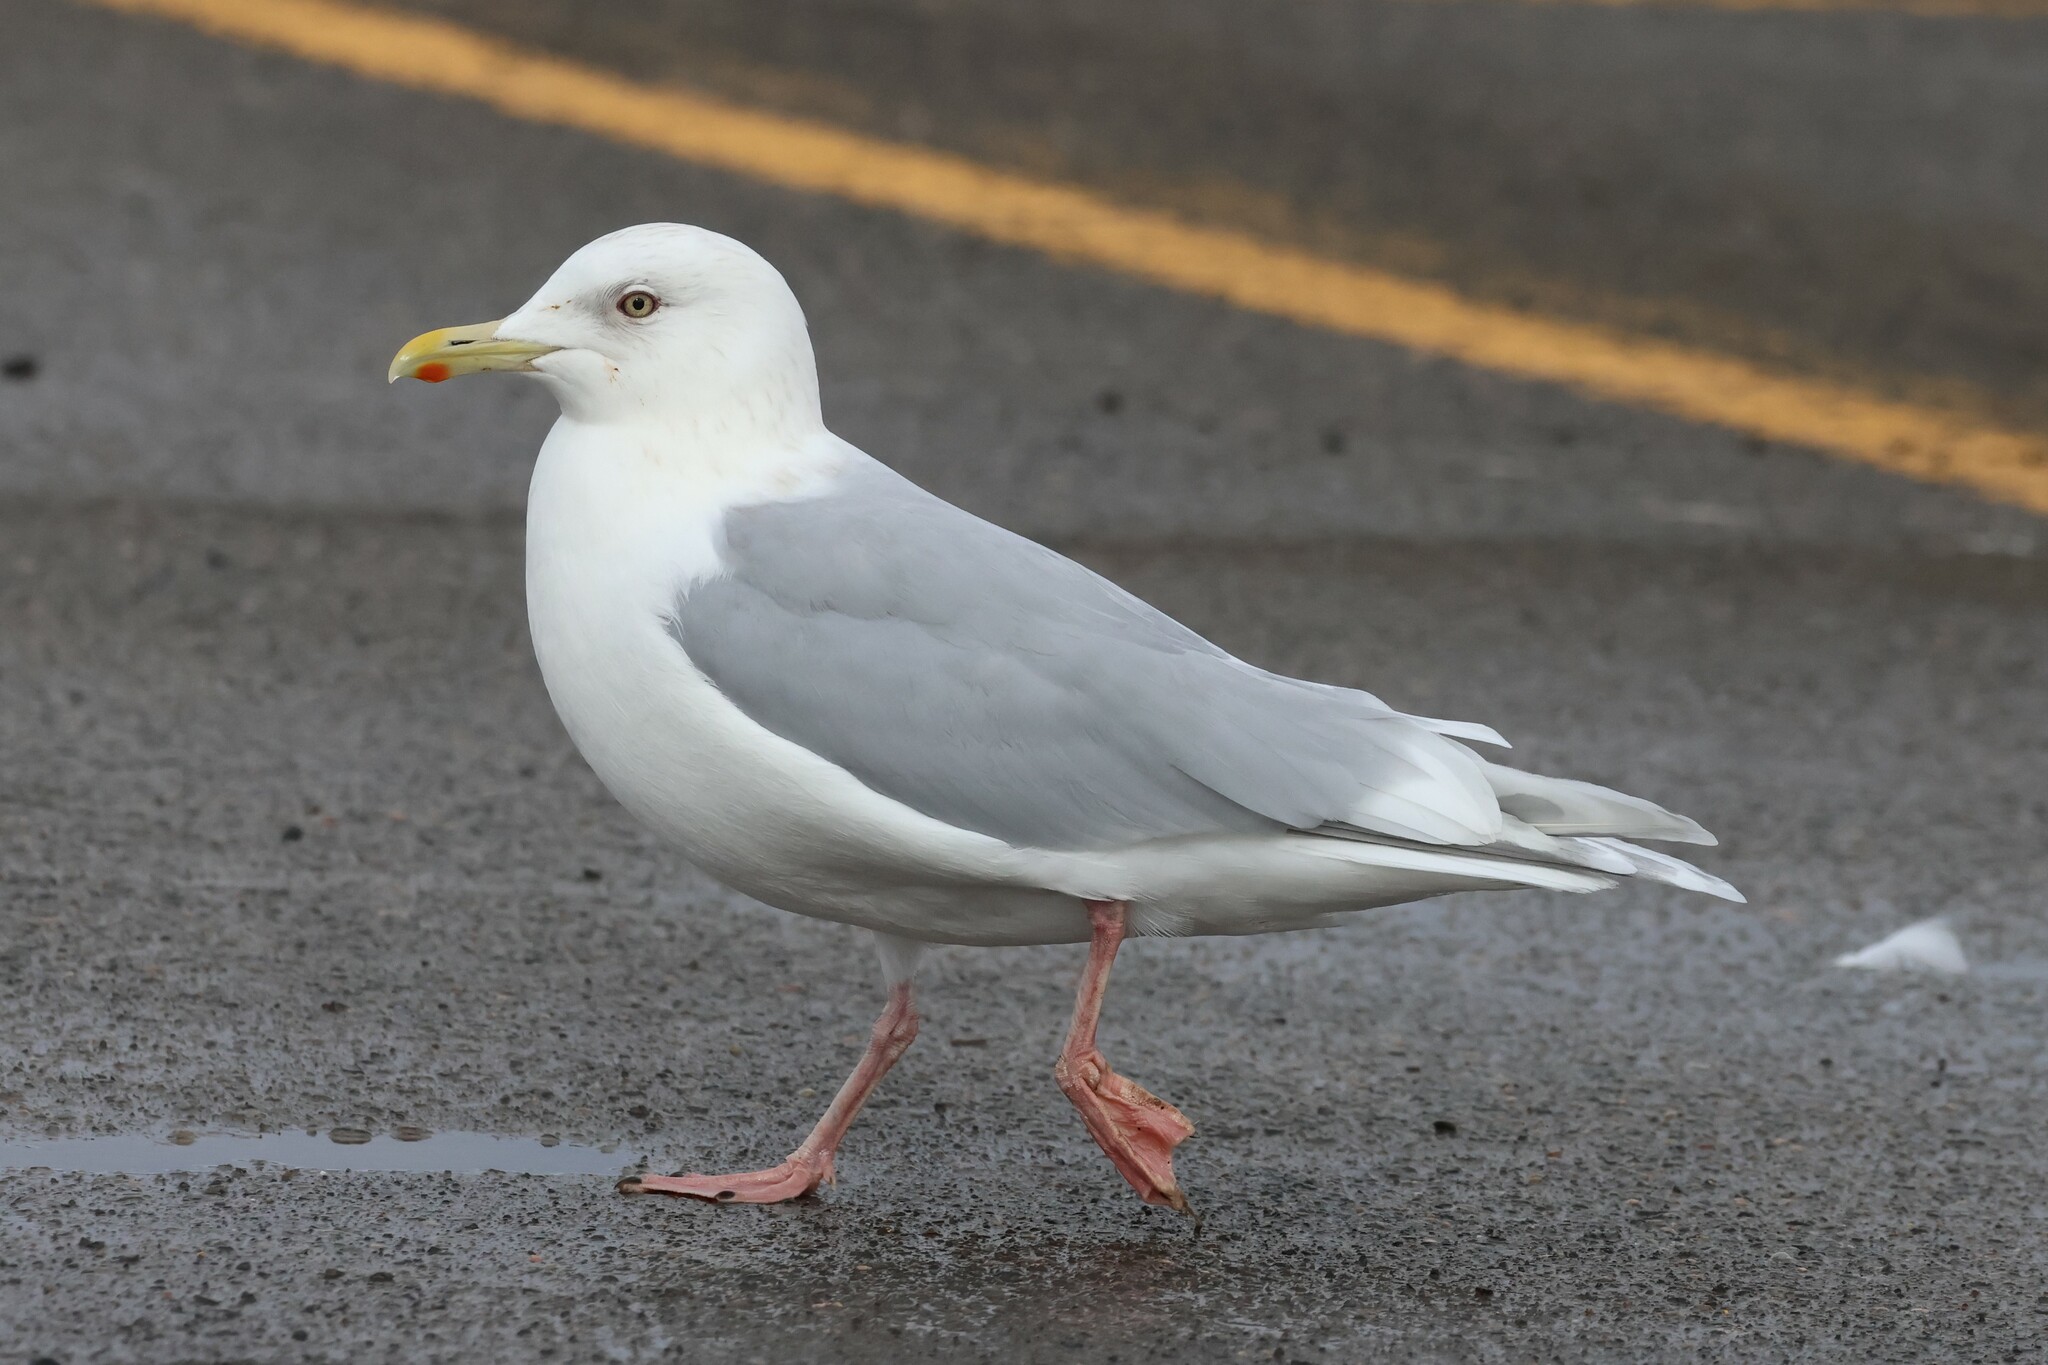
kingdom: Animalia
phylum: Chordata
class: Aves
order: Charadriiformes
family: Laridae
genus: Larus
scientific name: Larus glaucoides
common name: Iceland gull
